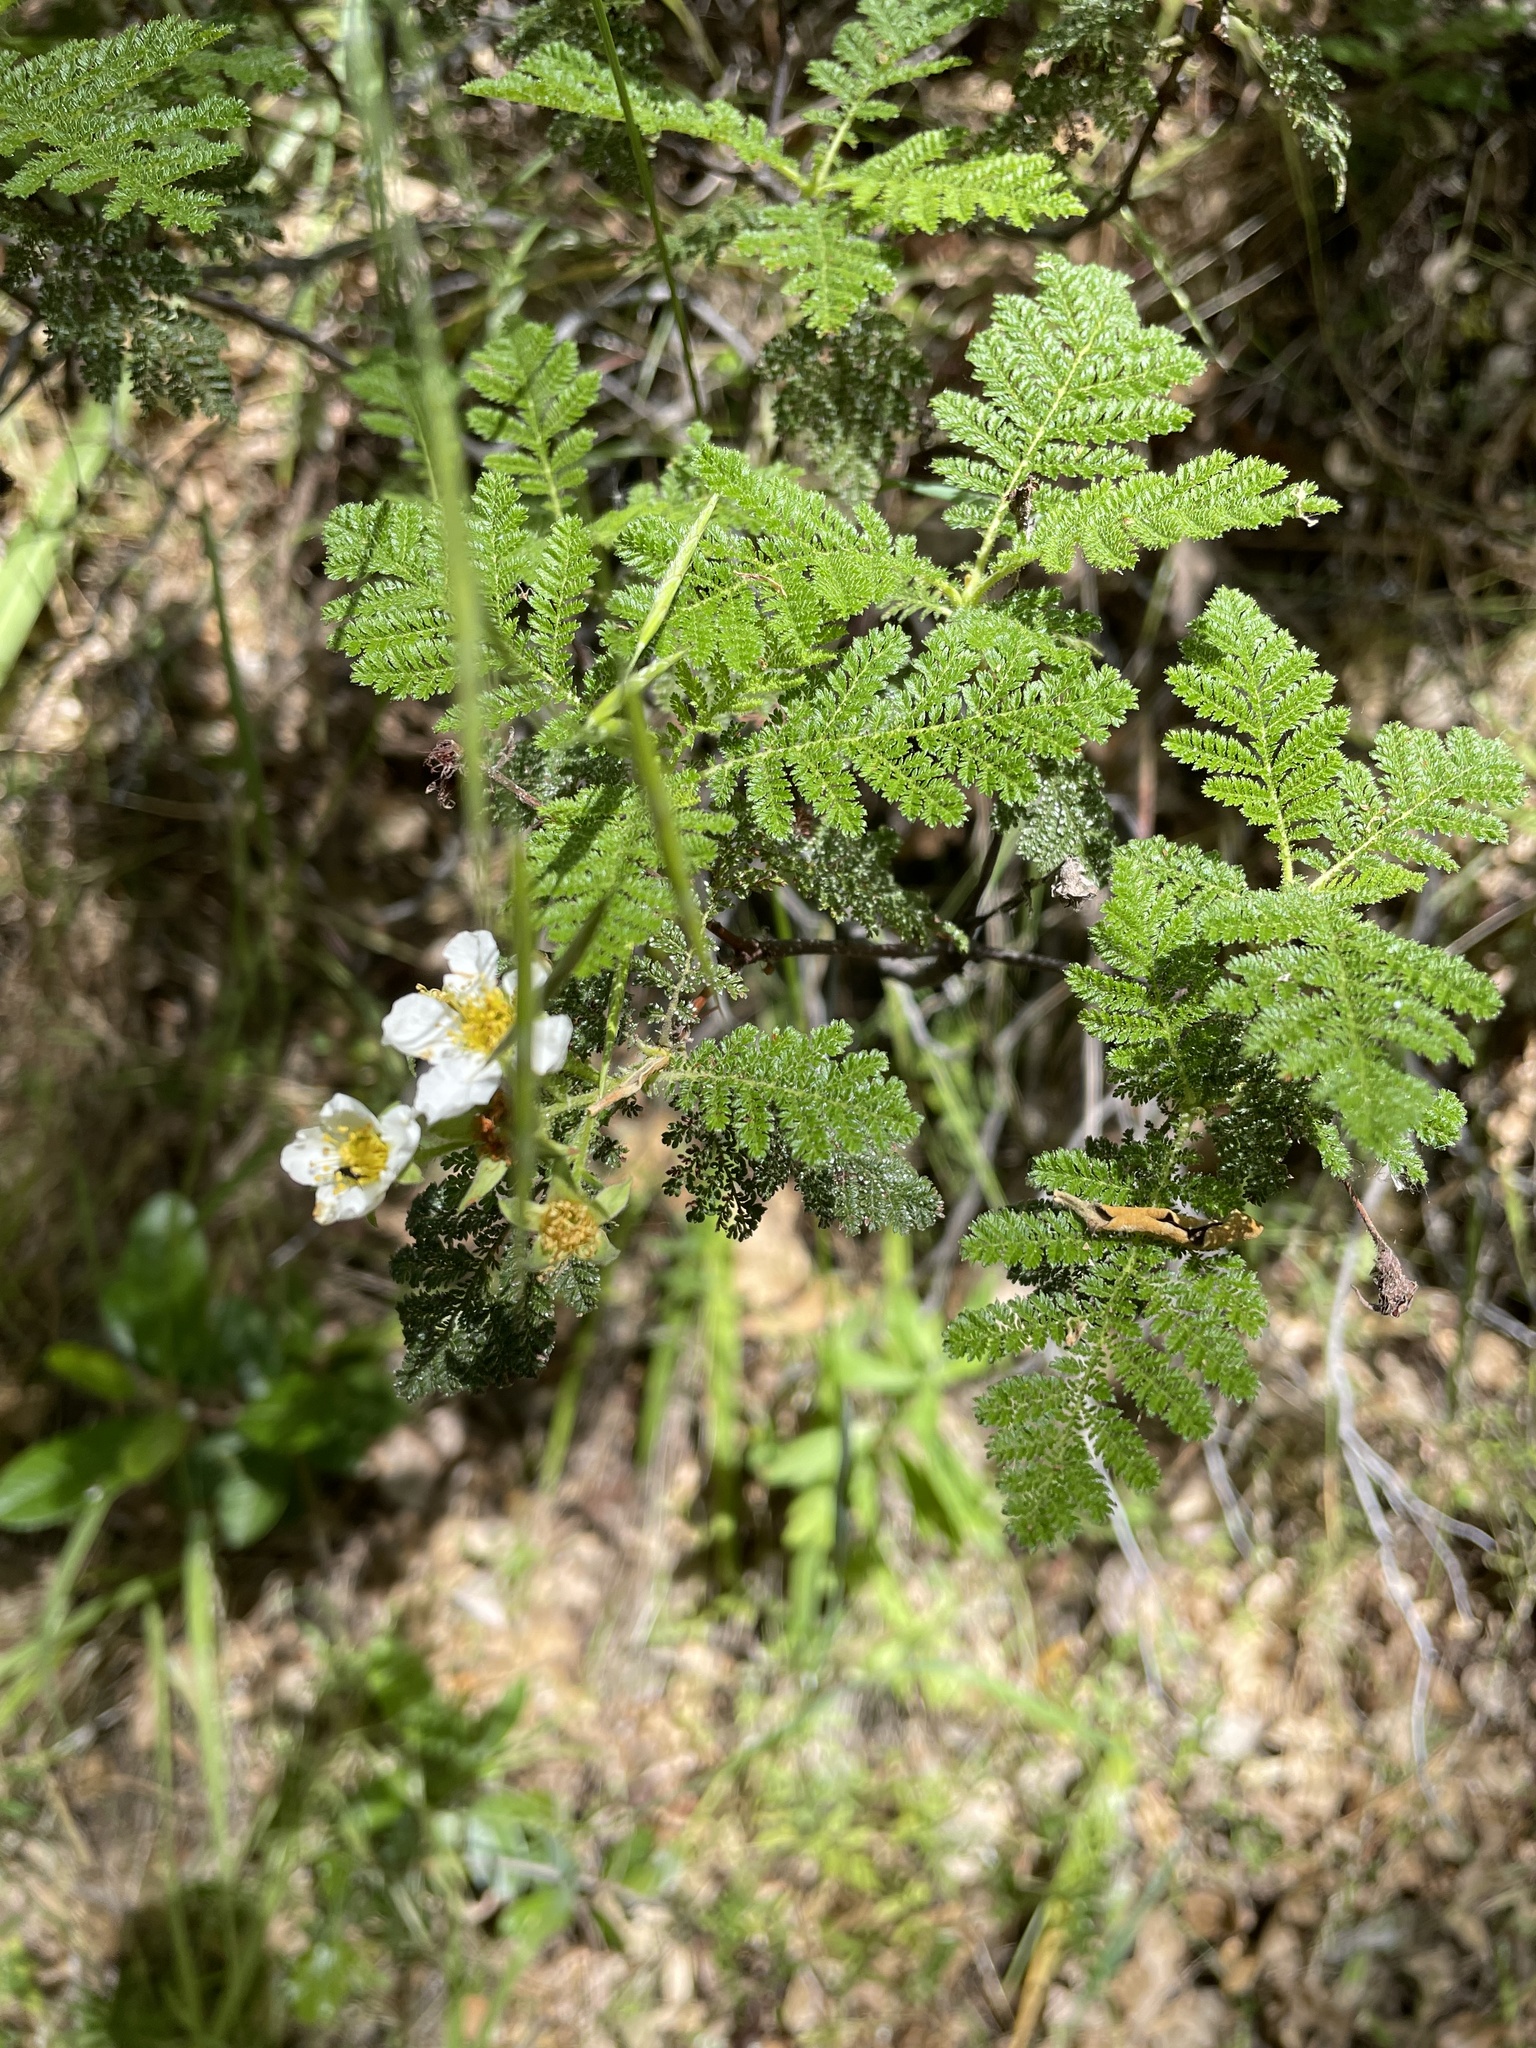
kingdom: Plantae
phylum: Tracheophyta
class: Magnoliopsida
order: Rosales
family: Rosaceae
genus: Chamaebatia
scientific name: Chamaebatia foliolosa
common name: Mountain misery
